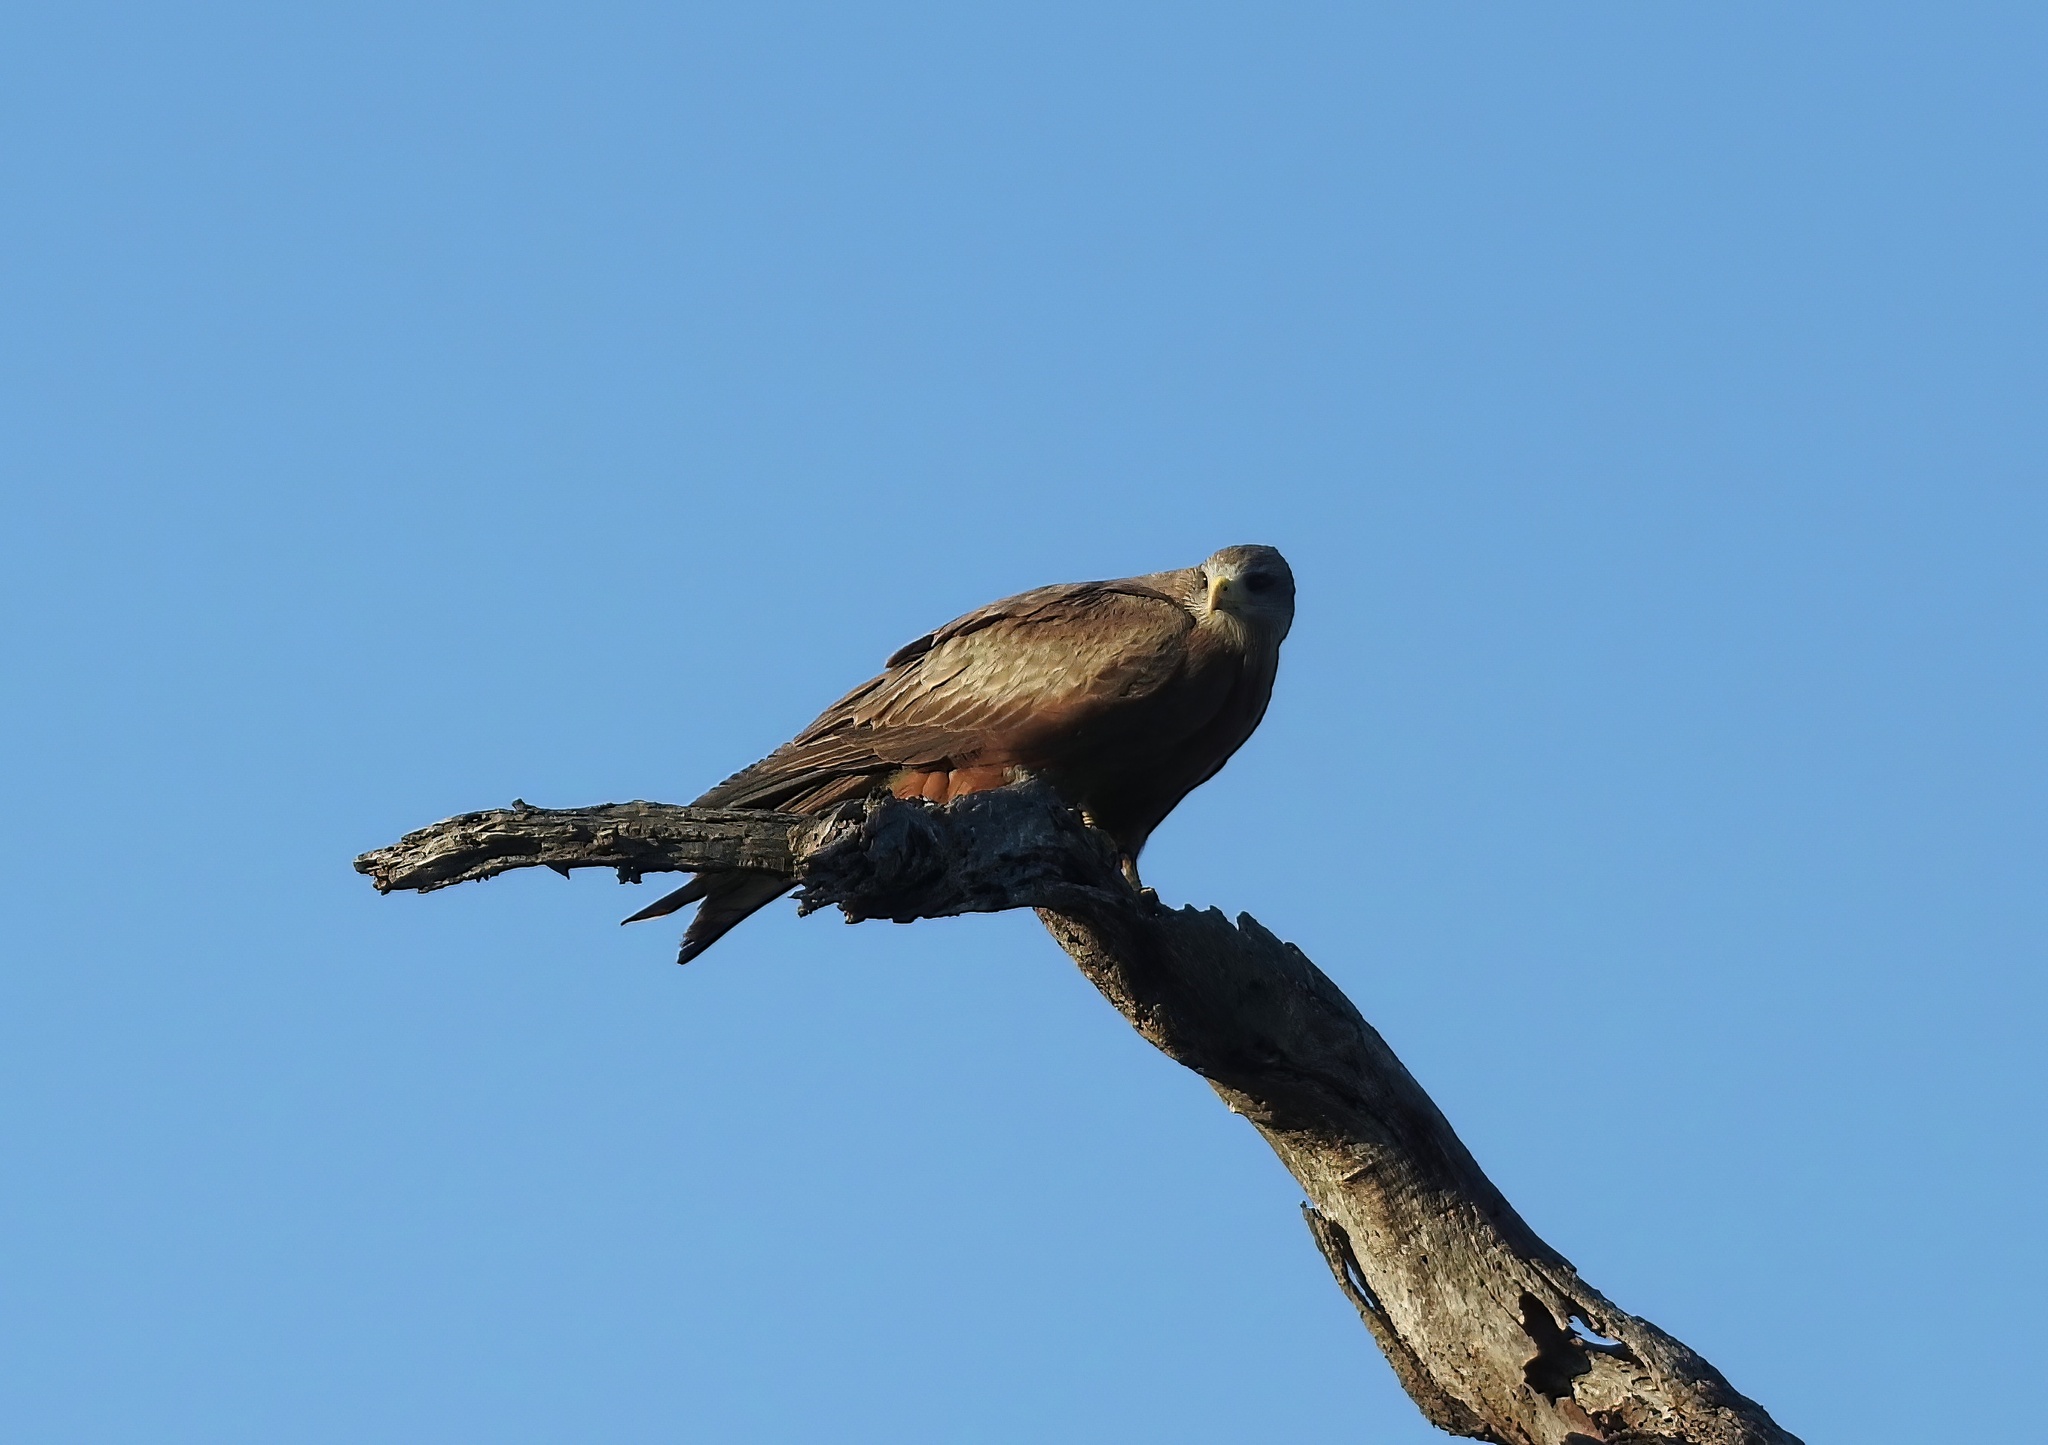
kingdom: Animalia
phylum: Chordata
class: Aves
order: Accipitriformes
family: Accipitridae
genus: Milvus
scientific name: Milvus migrans
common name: Black kite
